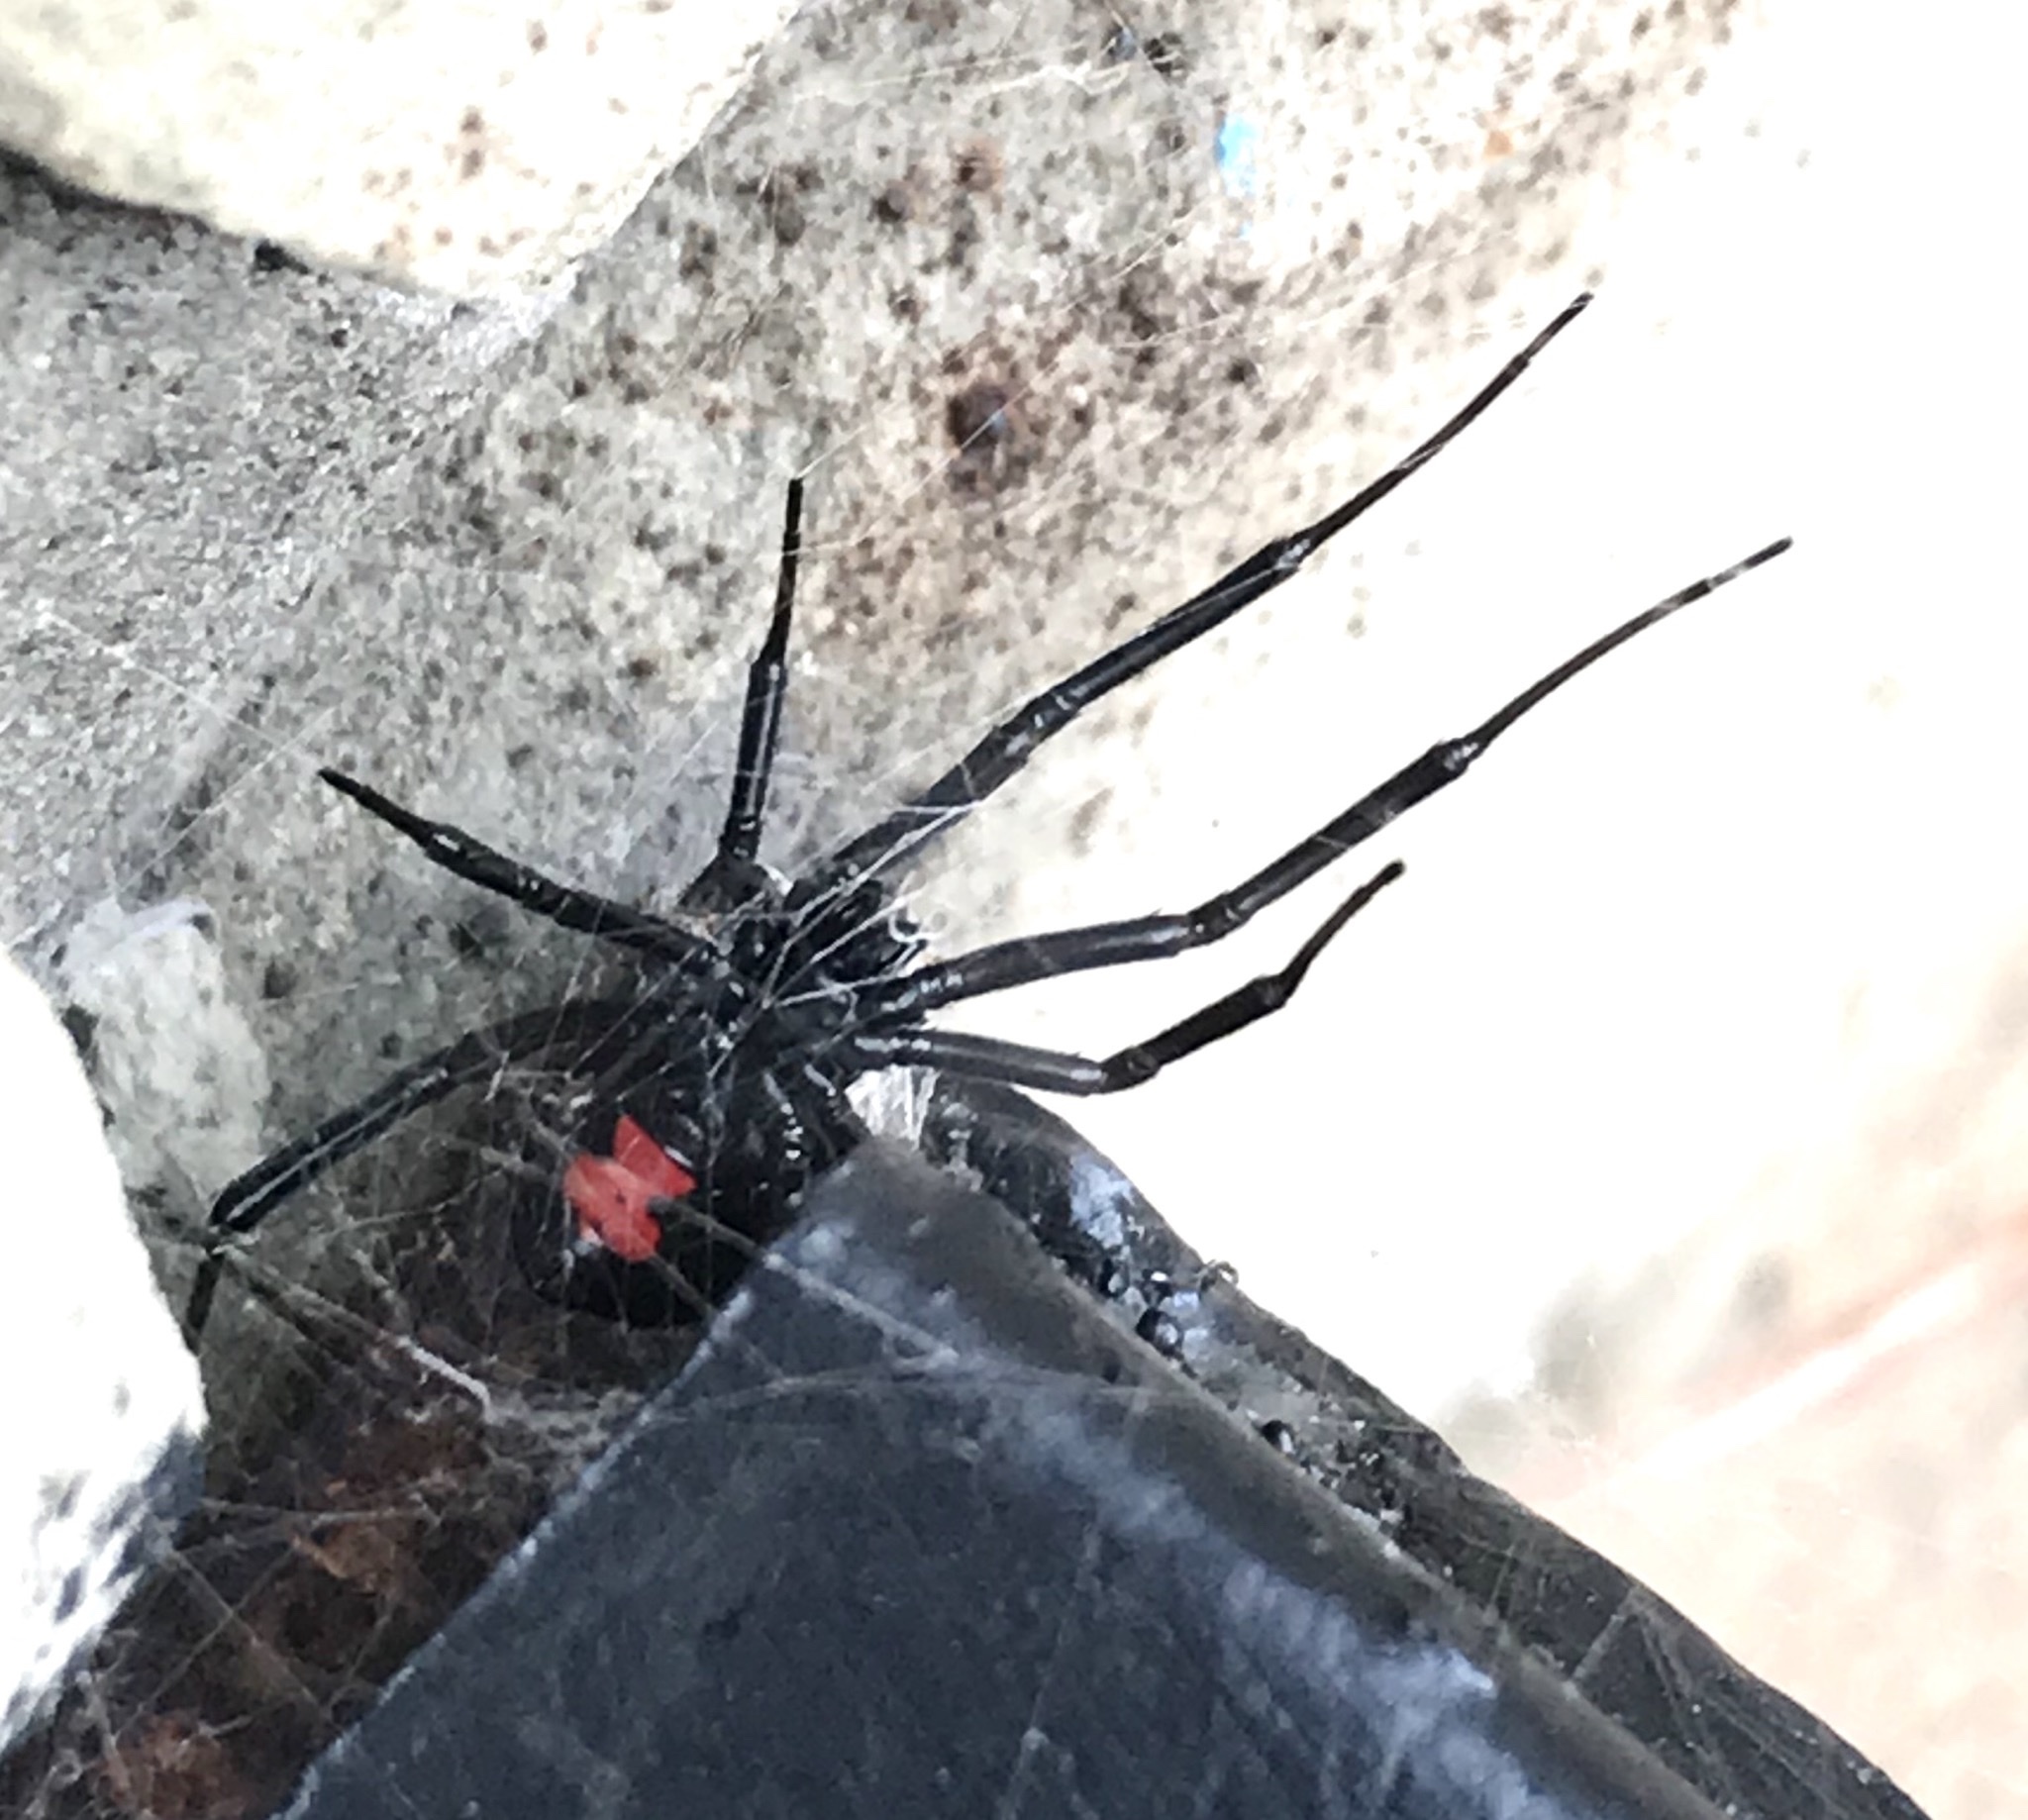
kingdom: Animalia
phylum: Arthropoda
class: Arachnida
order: Araneae
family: Theridiidae
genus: Latrodectus
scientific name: Latrodectus mactans
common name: Cobweb spiders
